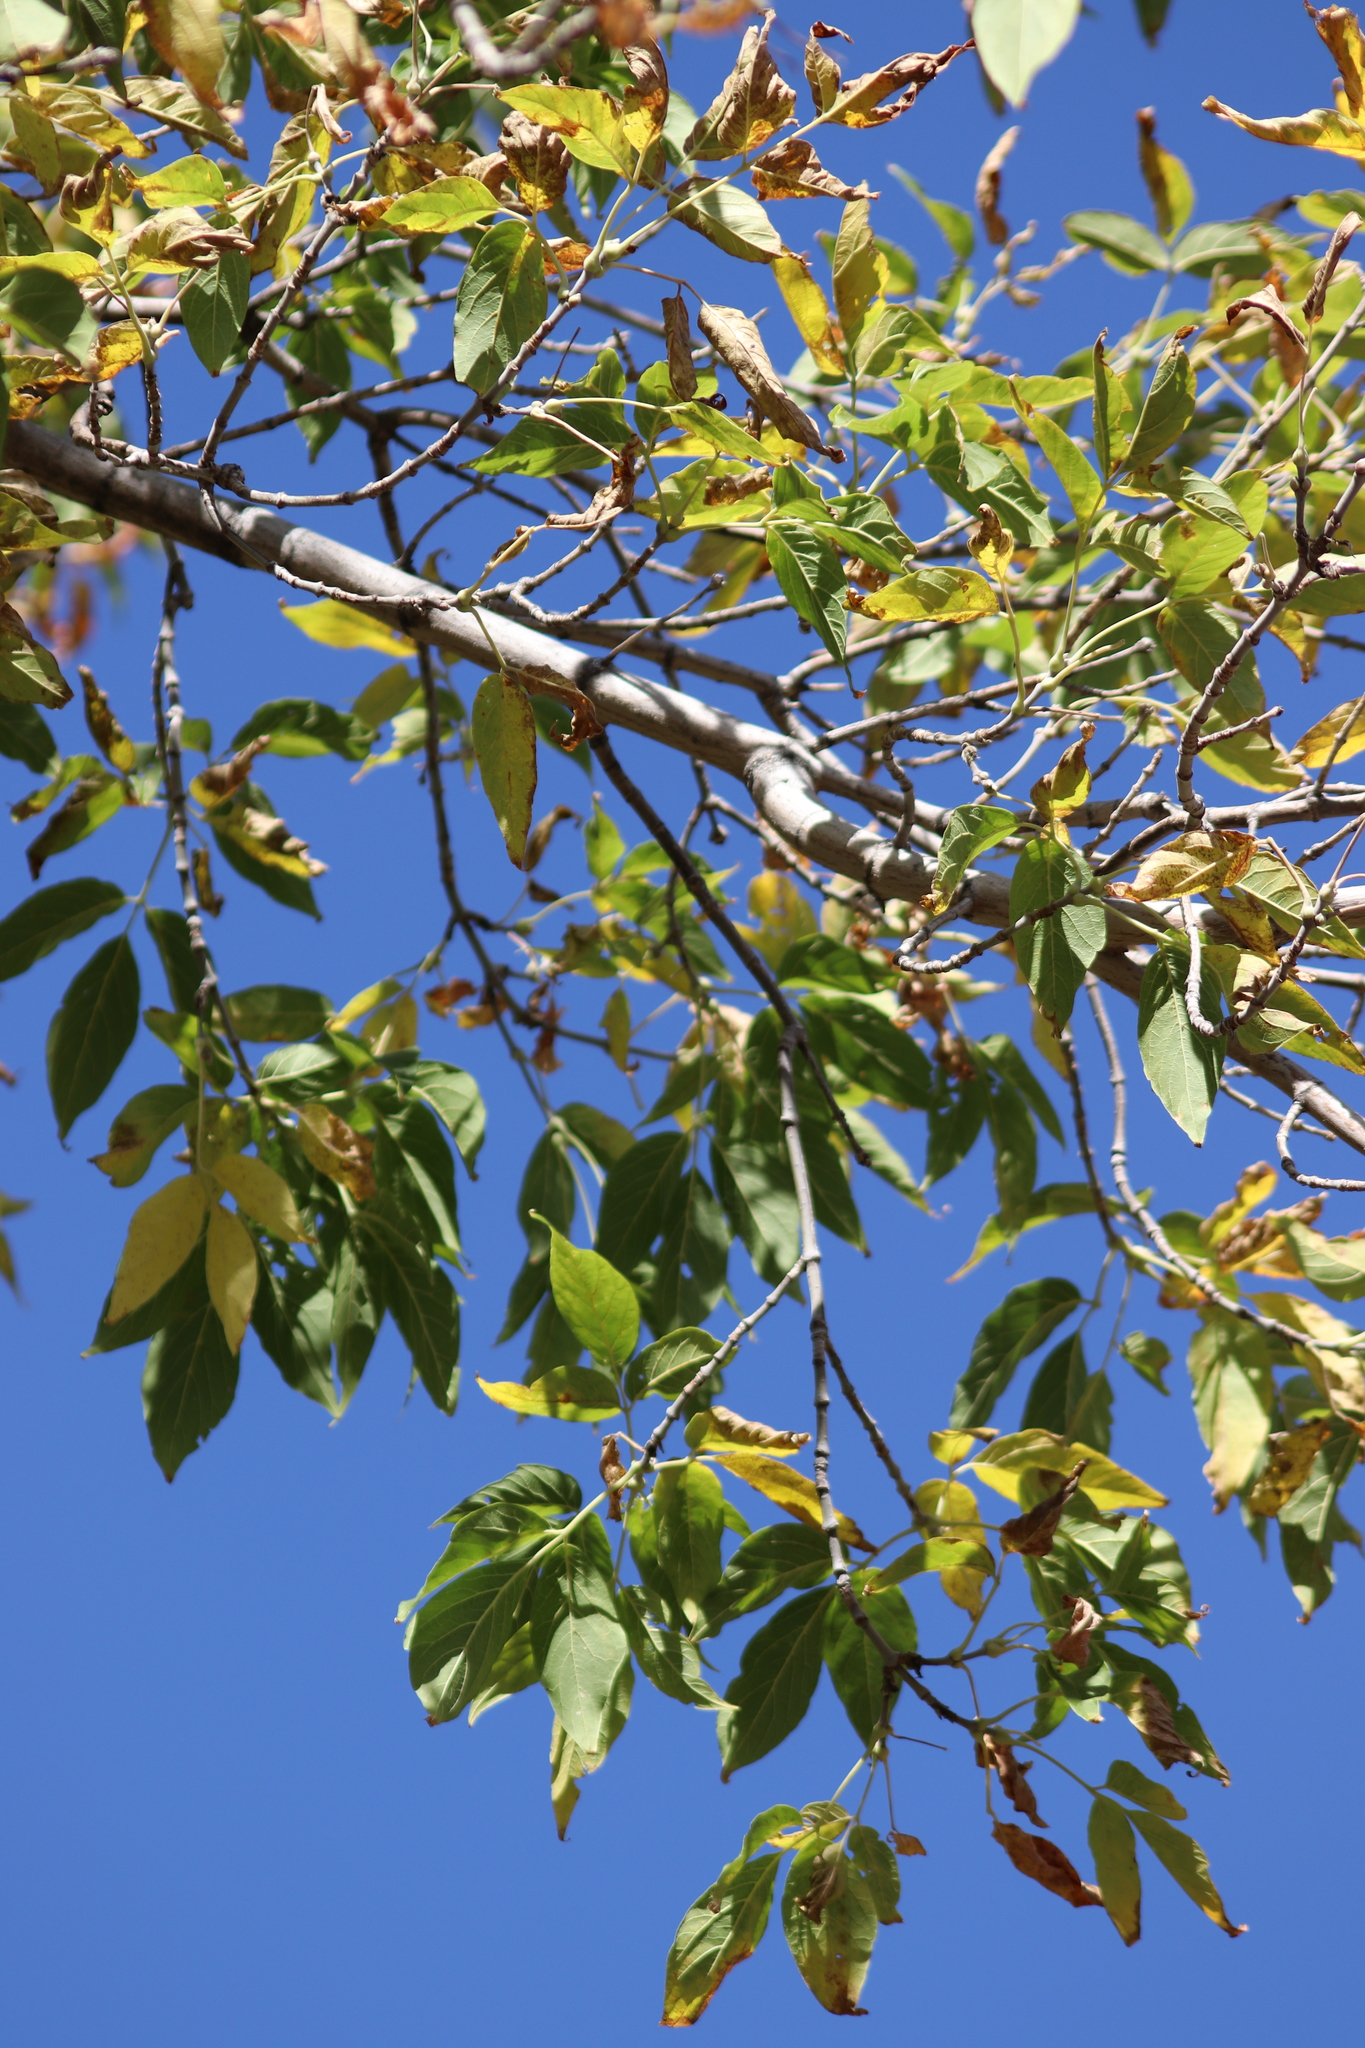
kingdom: Plantae
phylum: Tracheophyta
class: Magnoliopsida
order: Sapindales
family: Sapindaceae
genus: Acer
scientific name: Acer negundo
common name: Ashleaf maple
